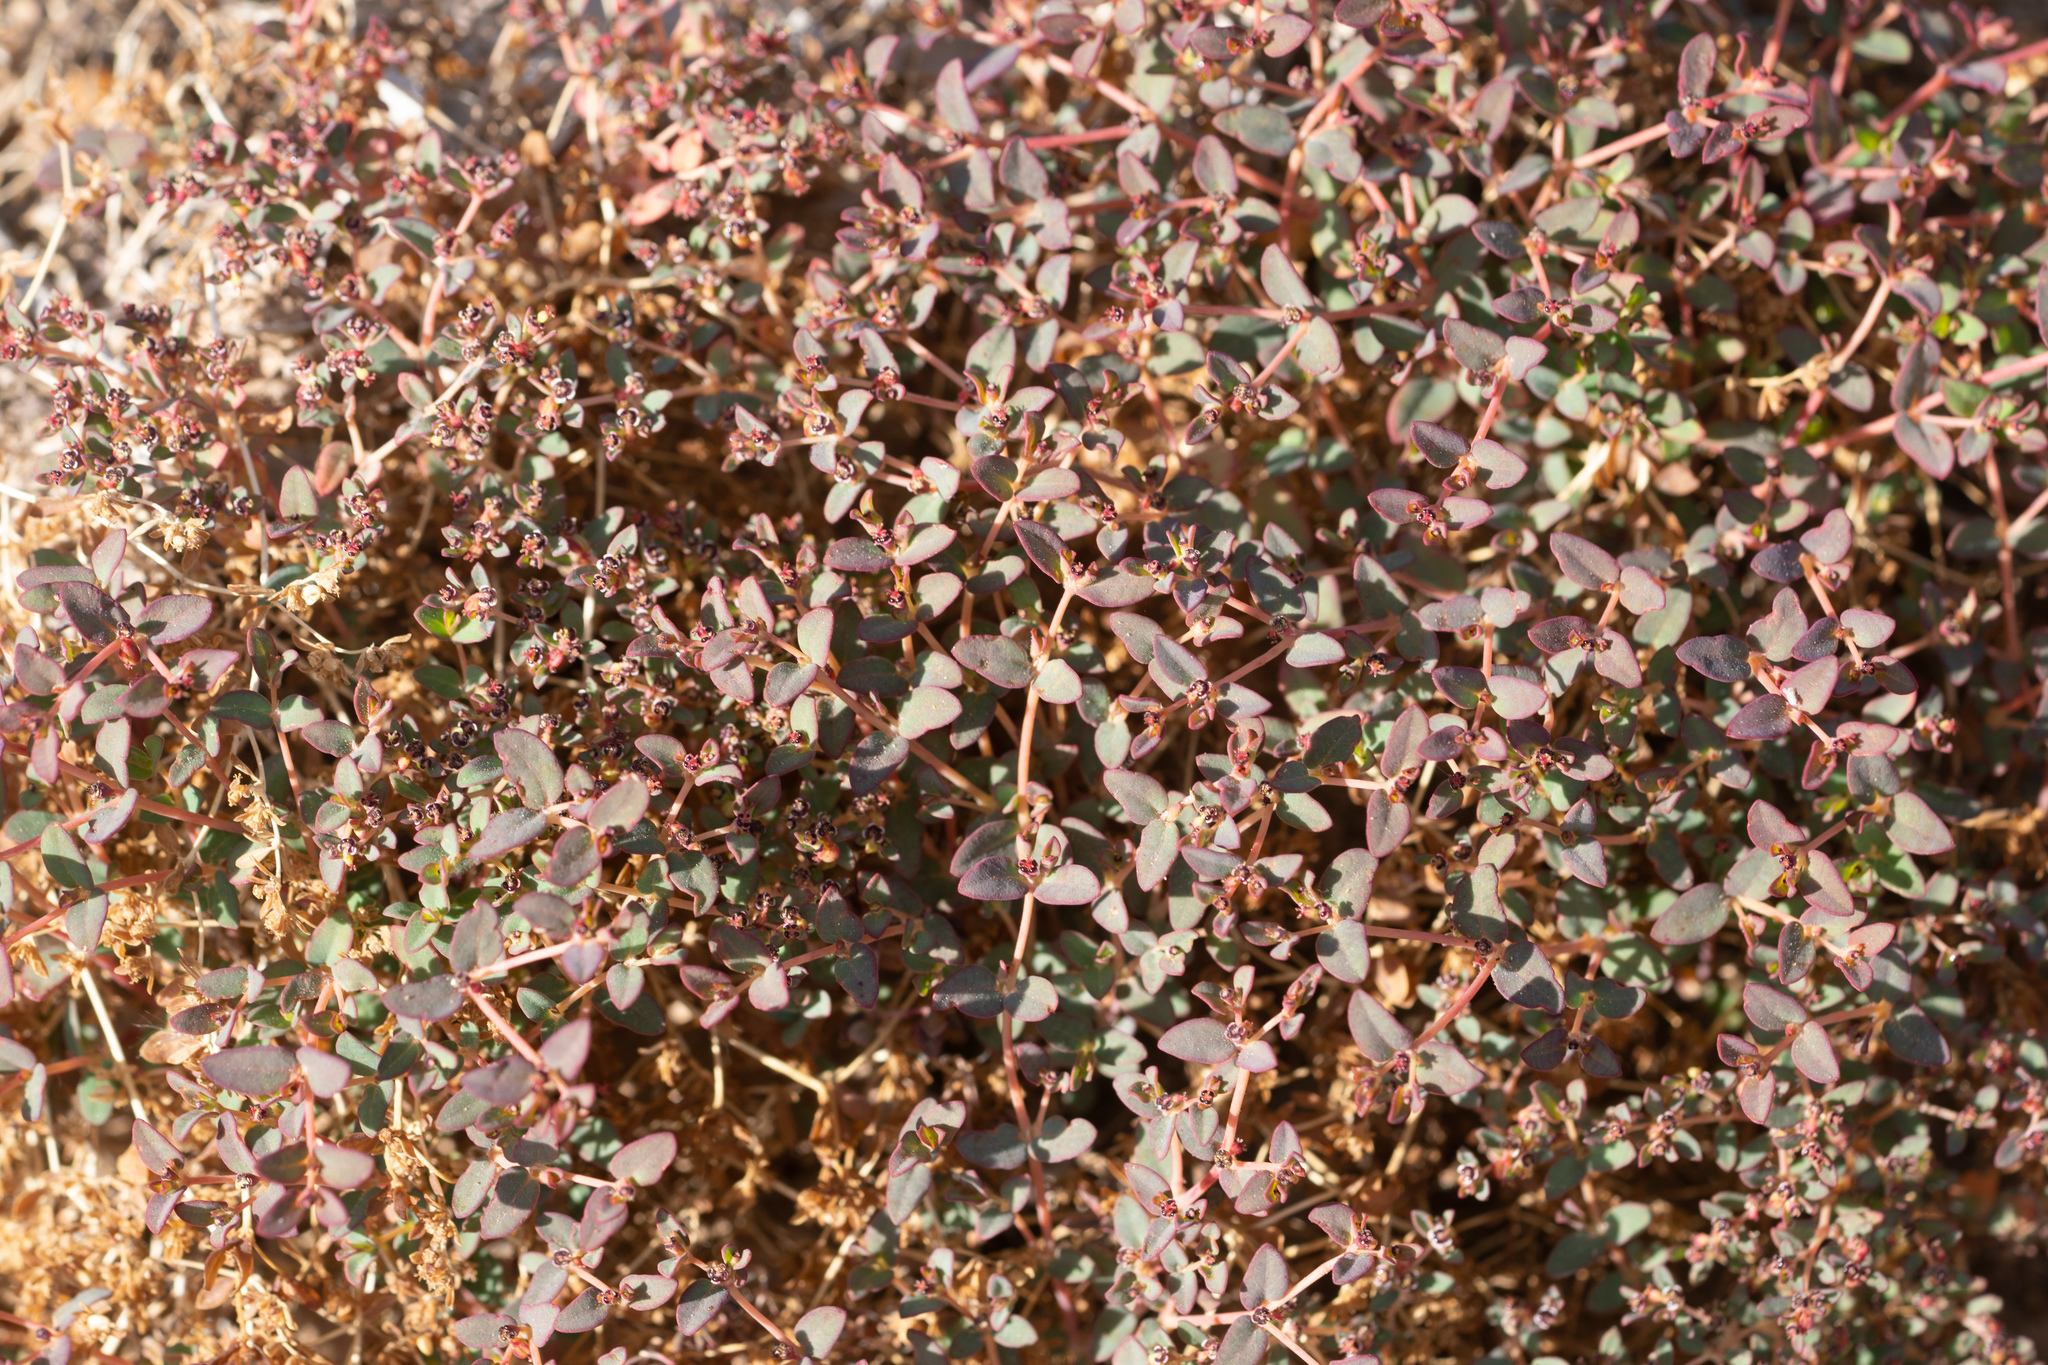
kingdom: Plantae
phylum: Tracheophyta
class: Magnoliopsida
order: Malpighiales
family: Euphorbiaceae
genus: Euphorbia
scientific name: Euphorbia polycarpa
